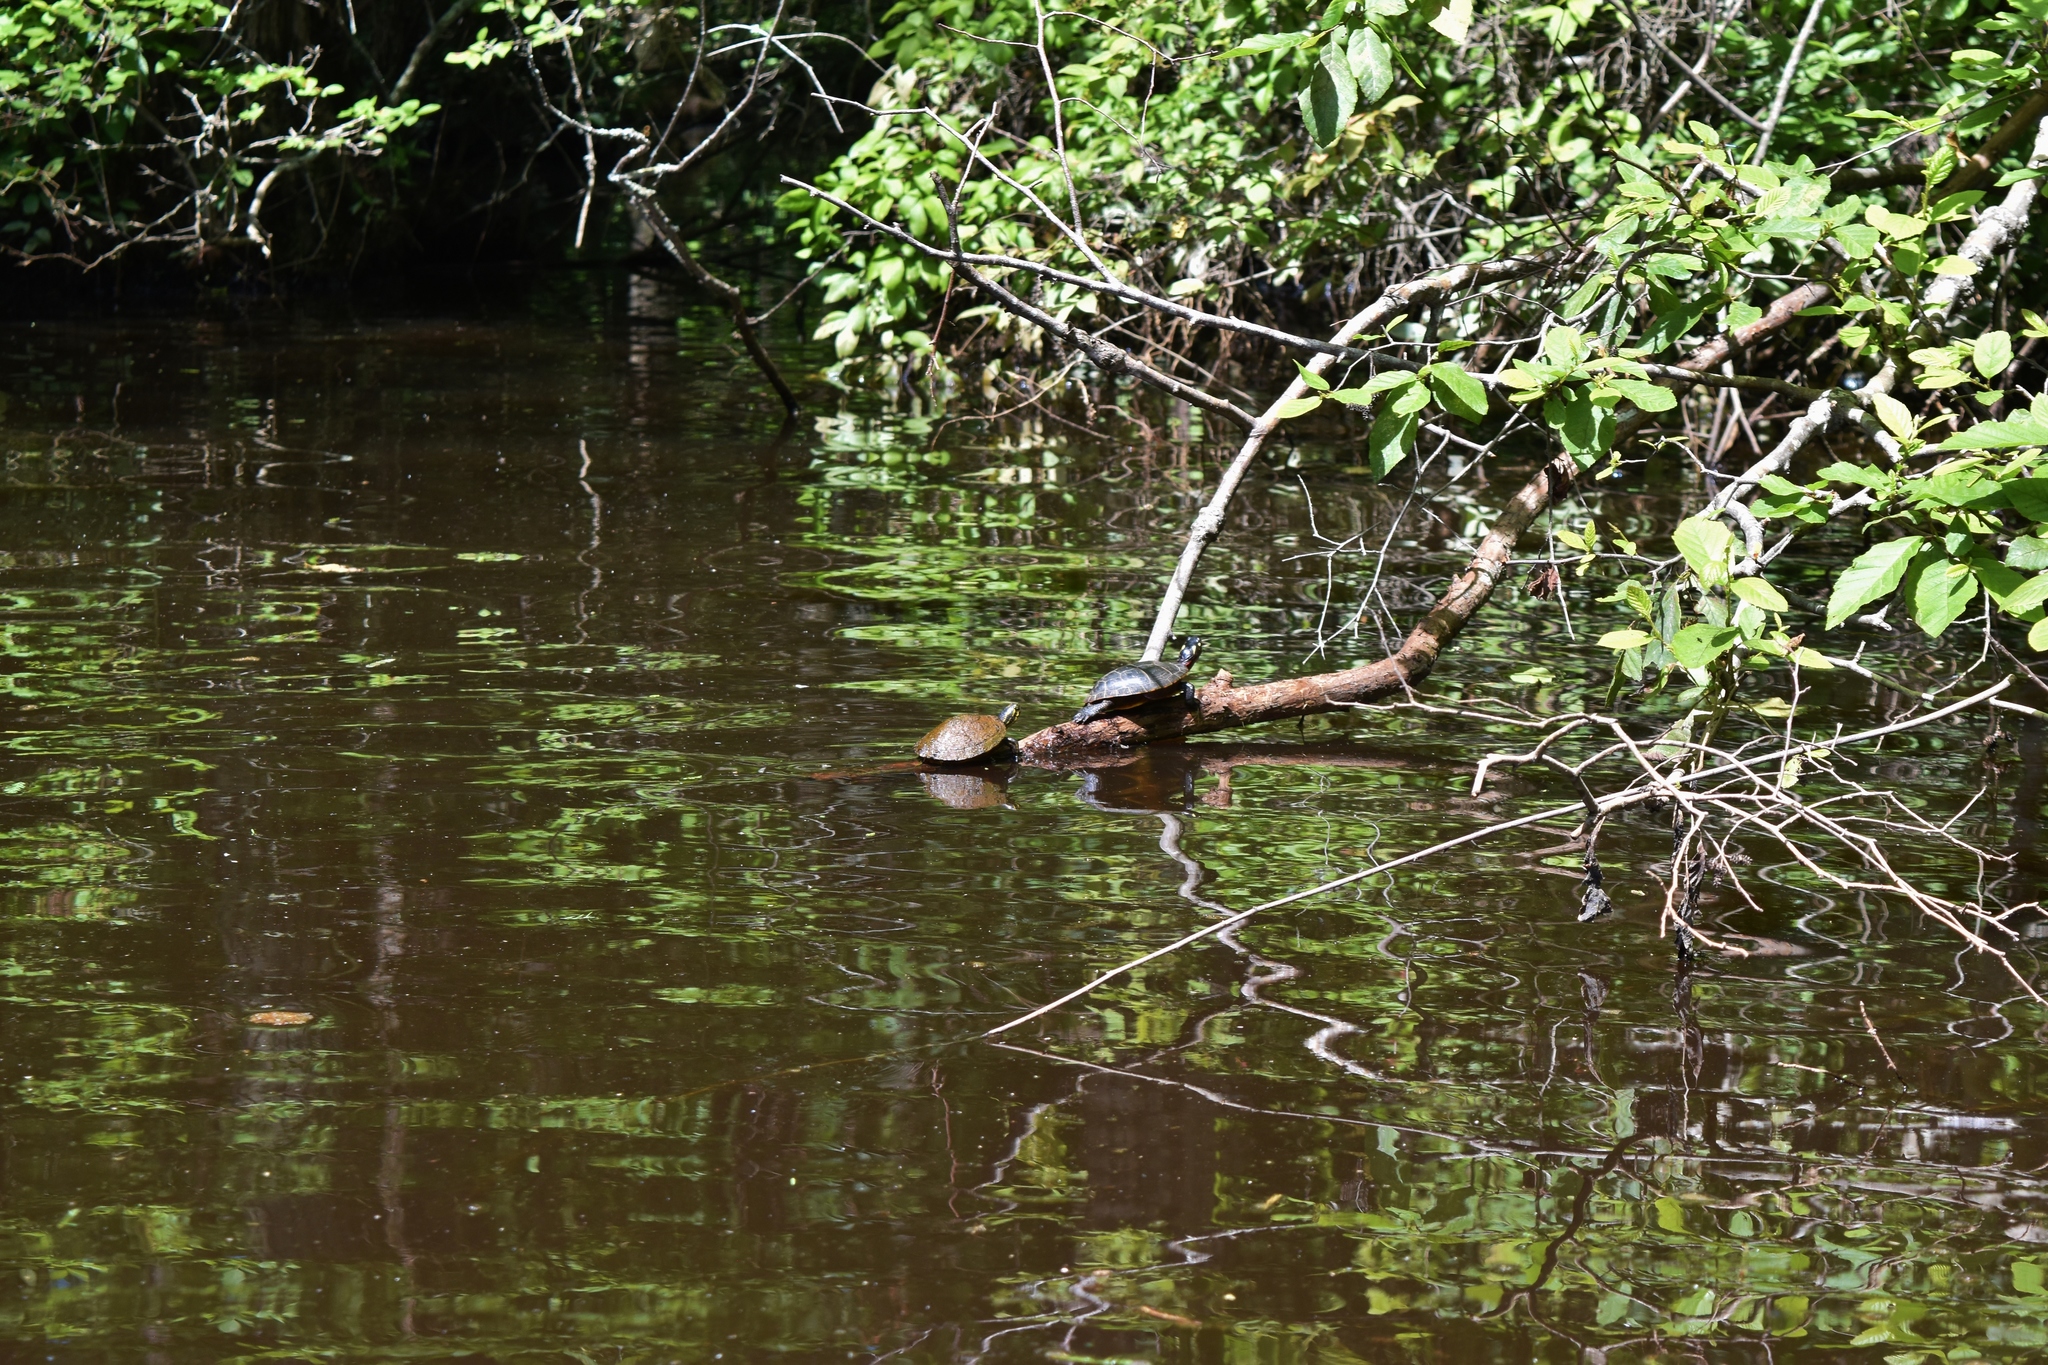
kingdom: Animalia
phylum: Chordata
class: Testudines
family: Emydidae
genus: Chrysemys
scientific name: Chrysemys picta
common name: Painted turtle
